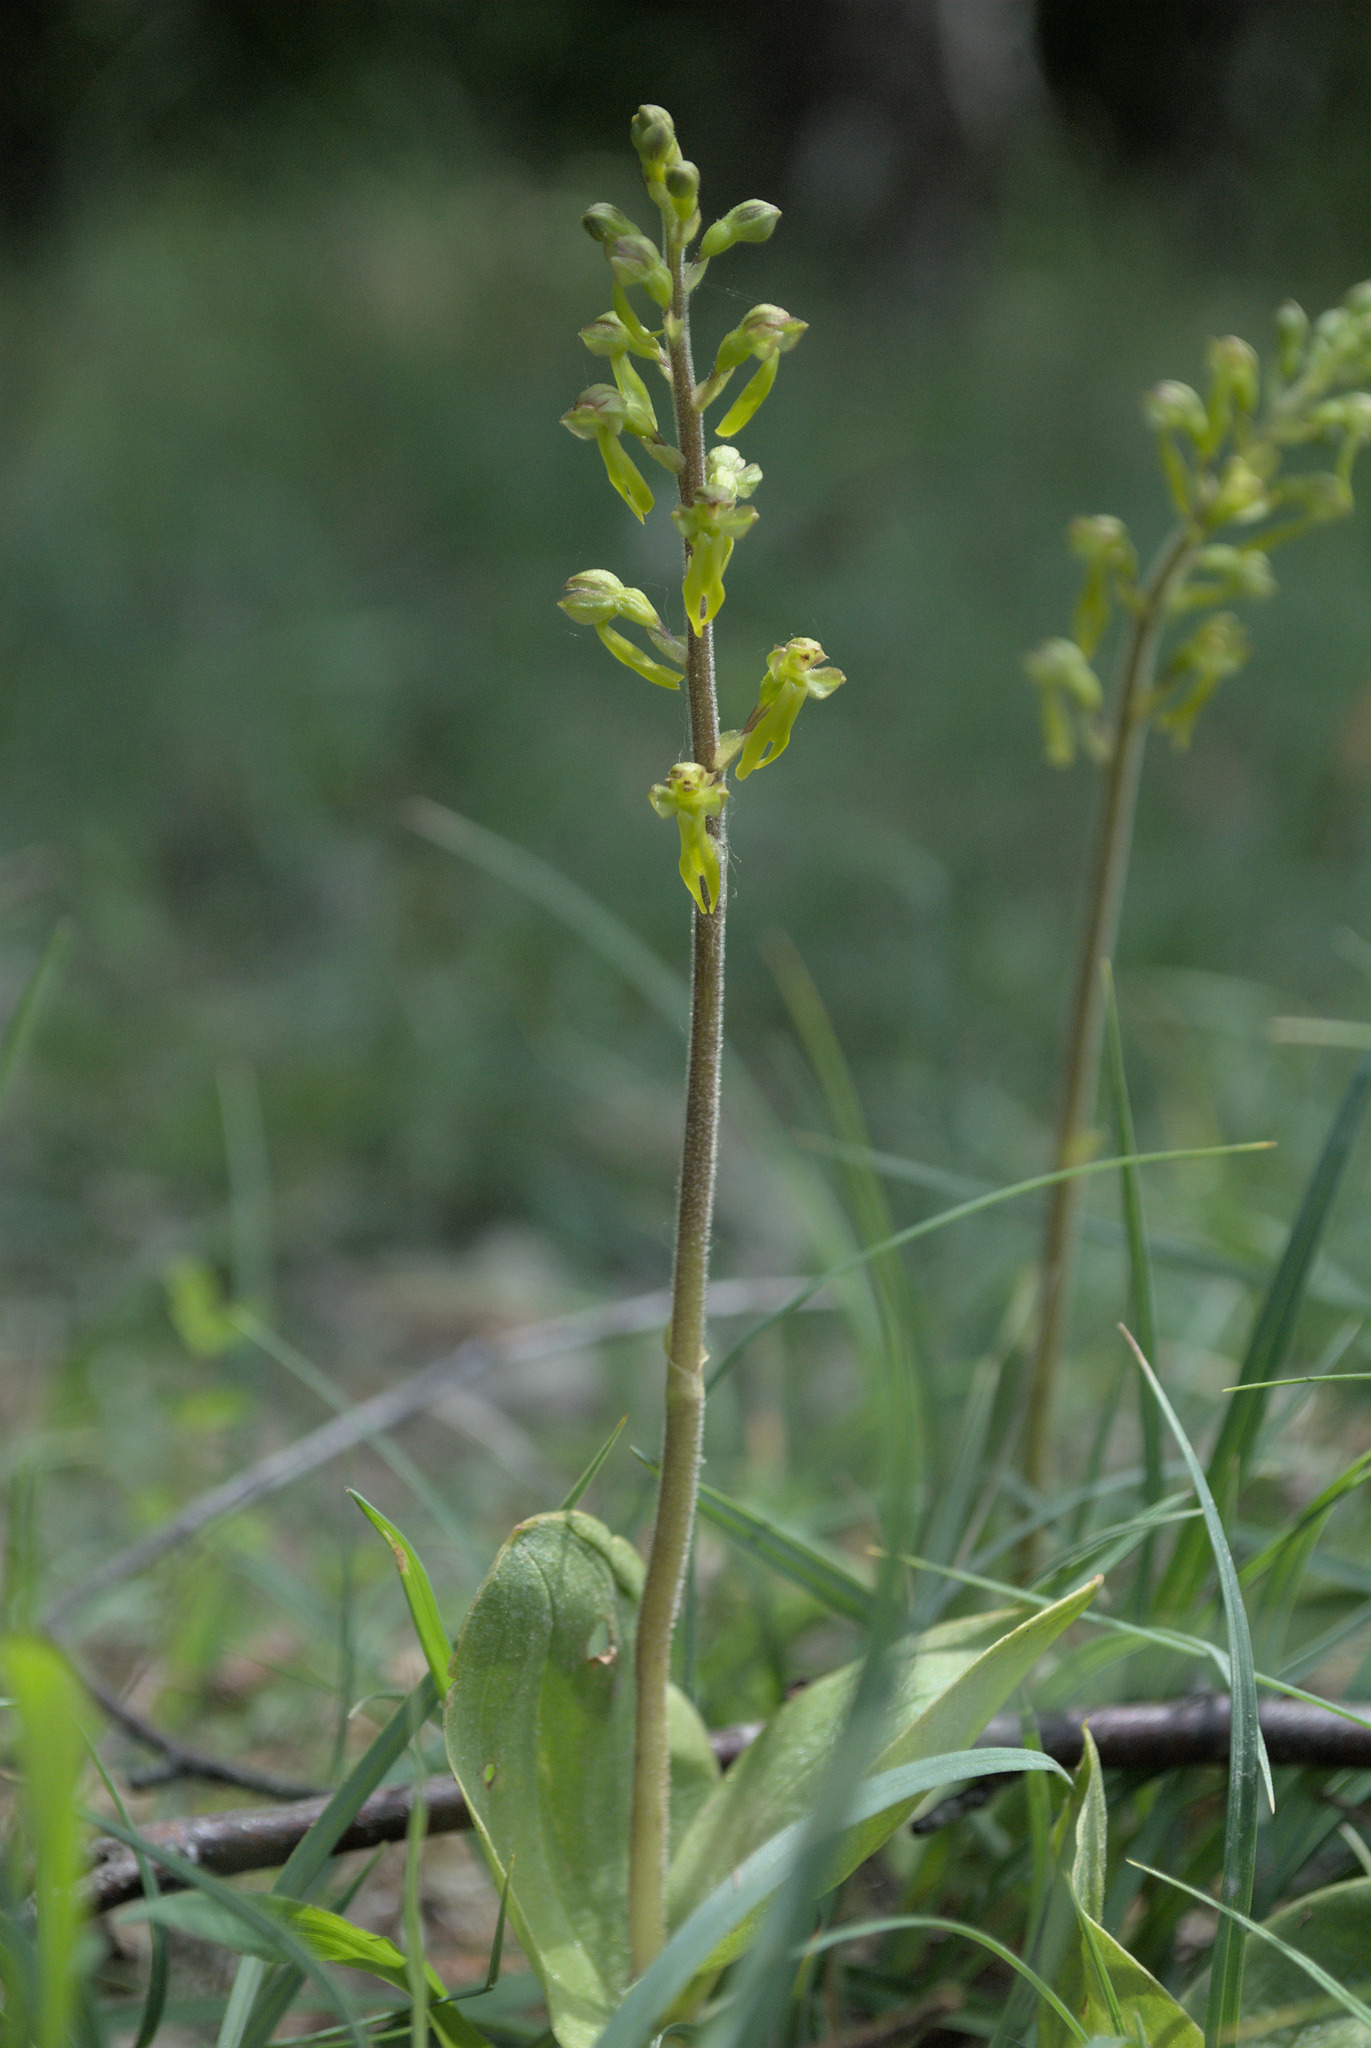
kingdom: Plantae
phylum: Tracheophyta
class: Liliopsida
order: Asparagales
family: Orchidaceae
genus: Neottia
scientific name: Neottia ovata
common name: Common twayblade
